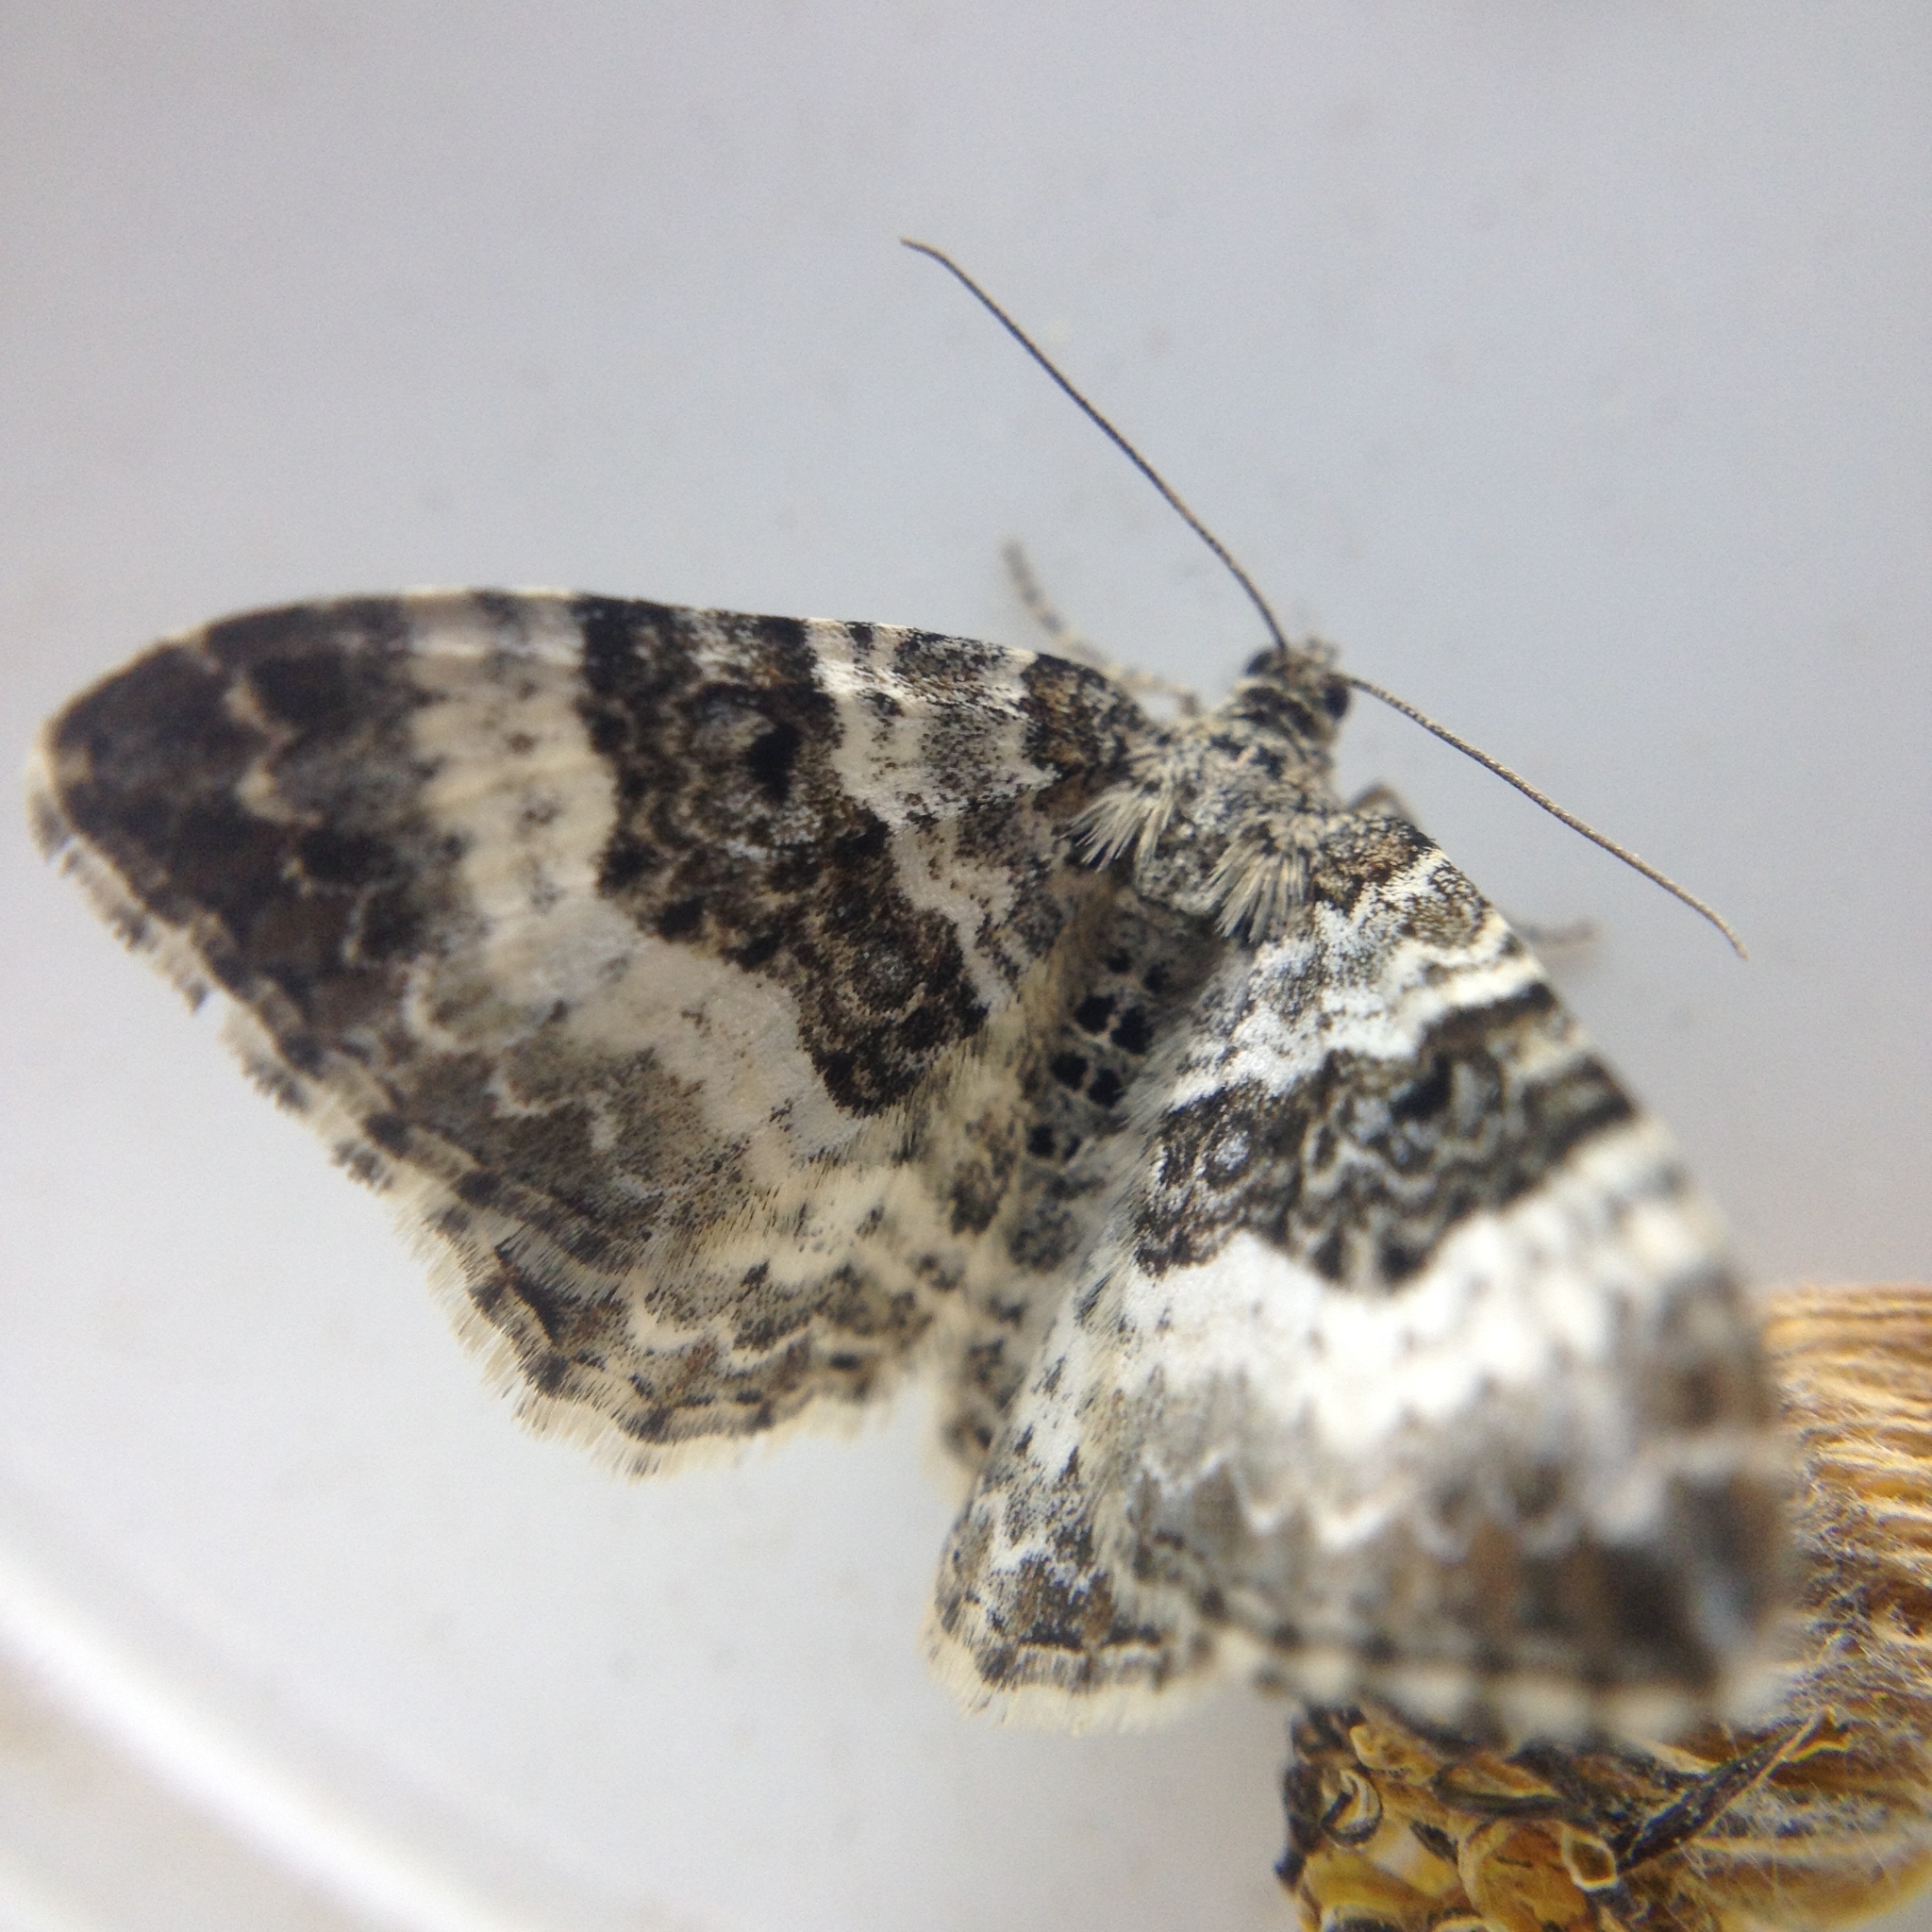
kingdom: Animalia
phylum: Arthropoda
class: Insecta
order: Lepidoptera
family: Geometridae
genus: Epirrhoe
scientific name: Epirrhoe alternata
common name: Common carpet
